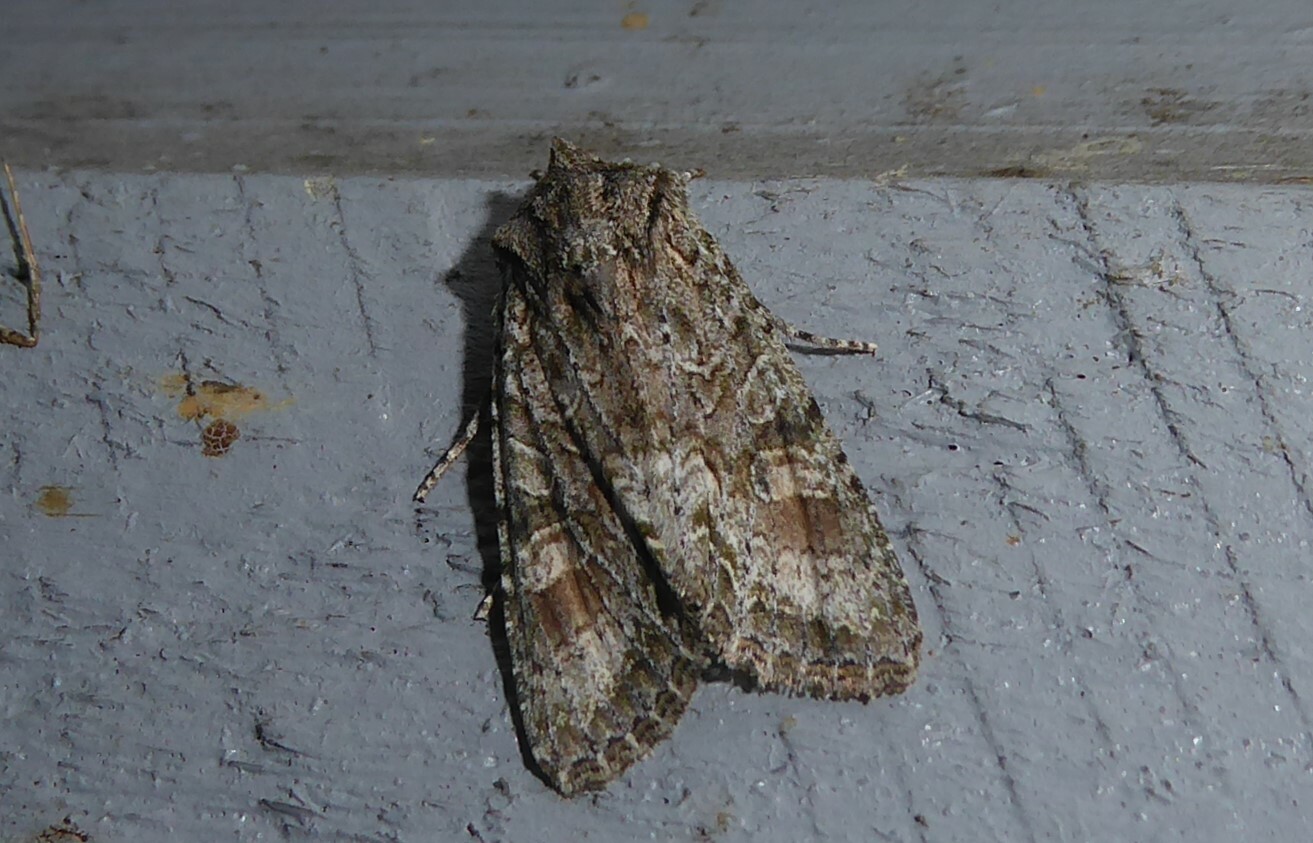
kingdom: Animalia
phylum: Arthropoda
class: Insecta
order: Lepidoptera
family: Noctuidae
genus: Ichneutica
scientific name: Ichneutica mutans
